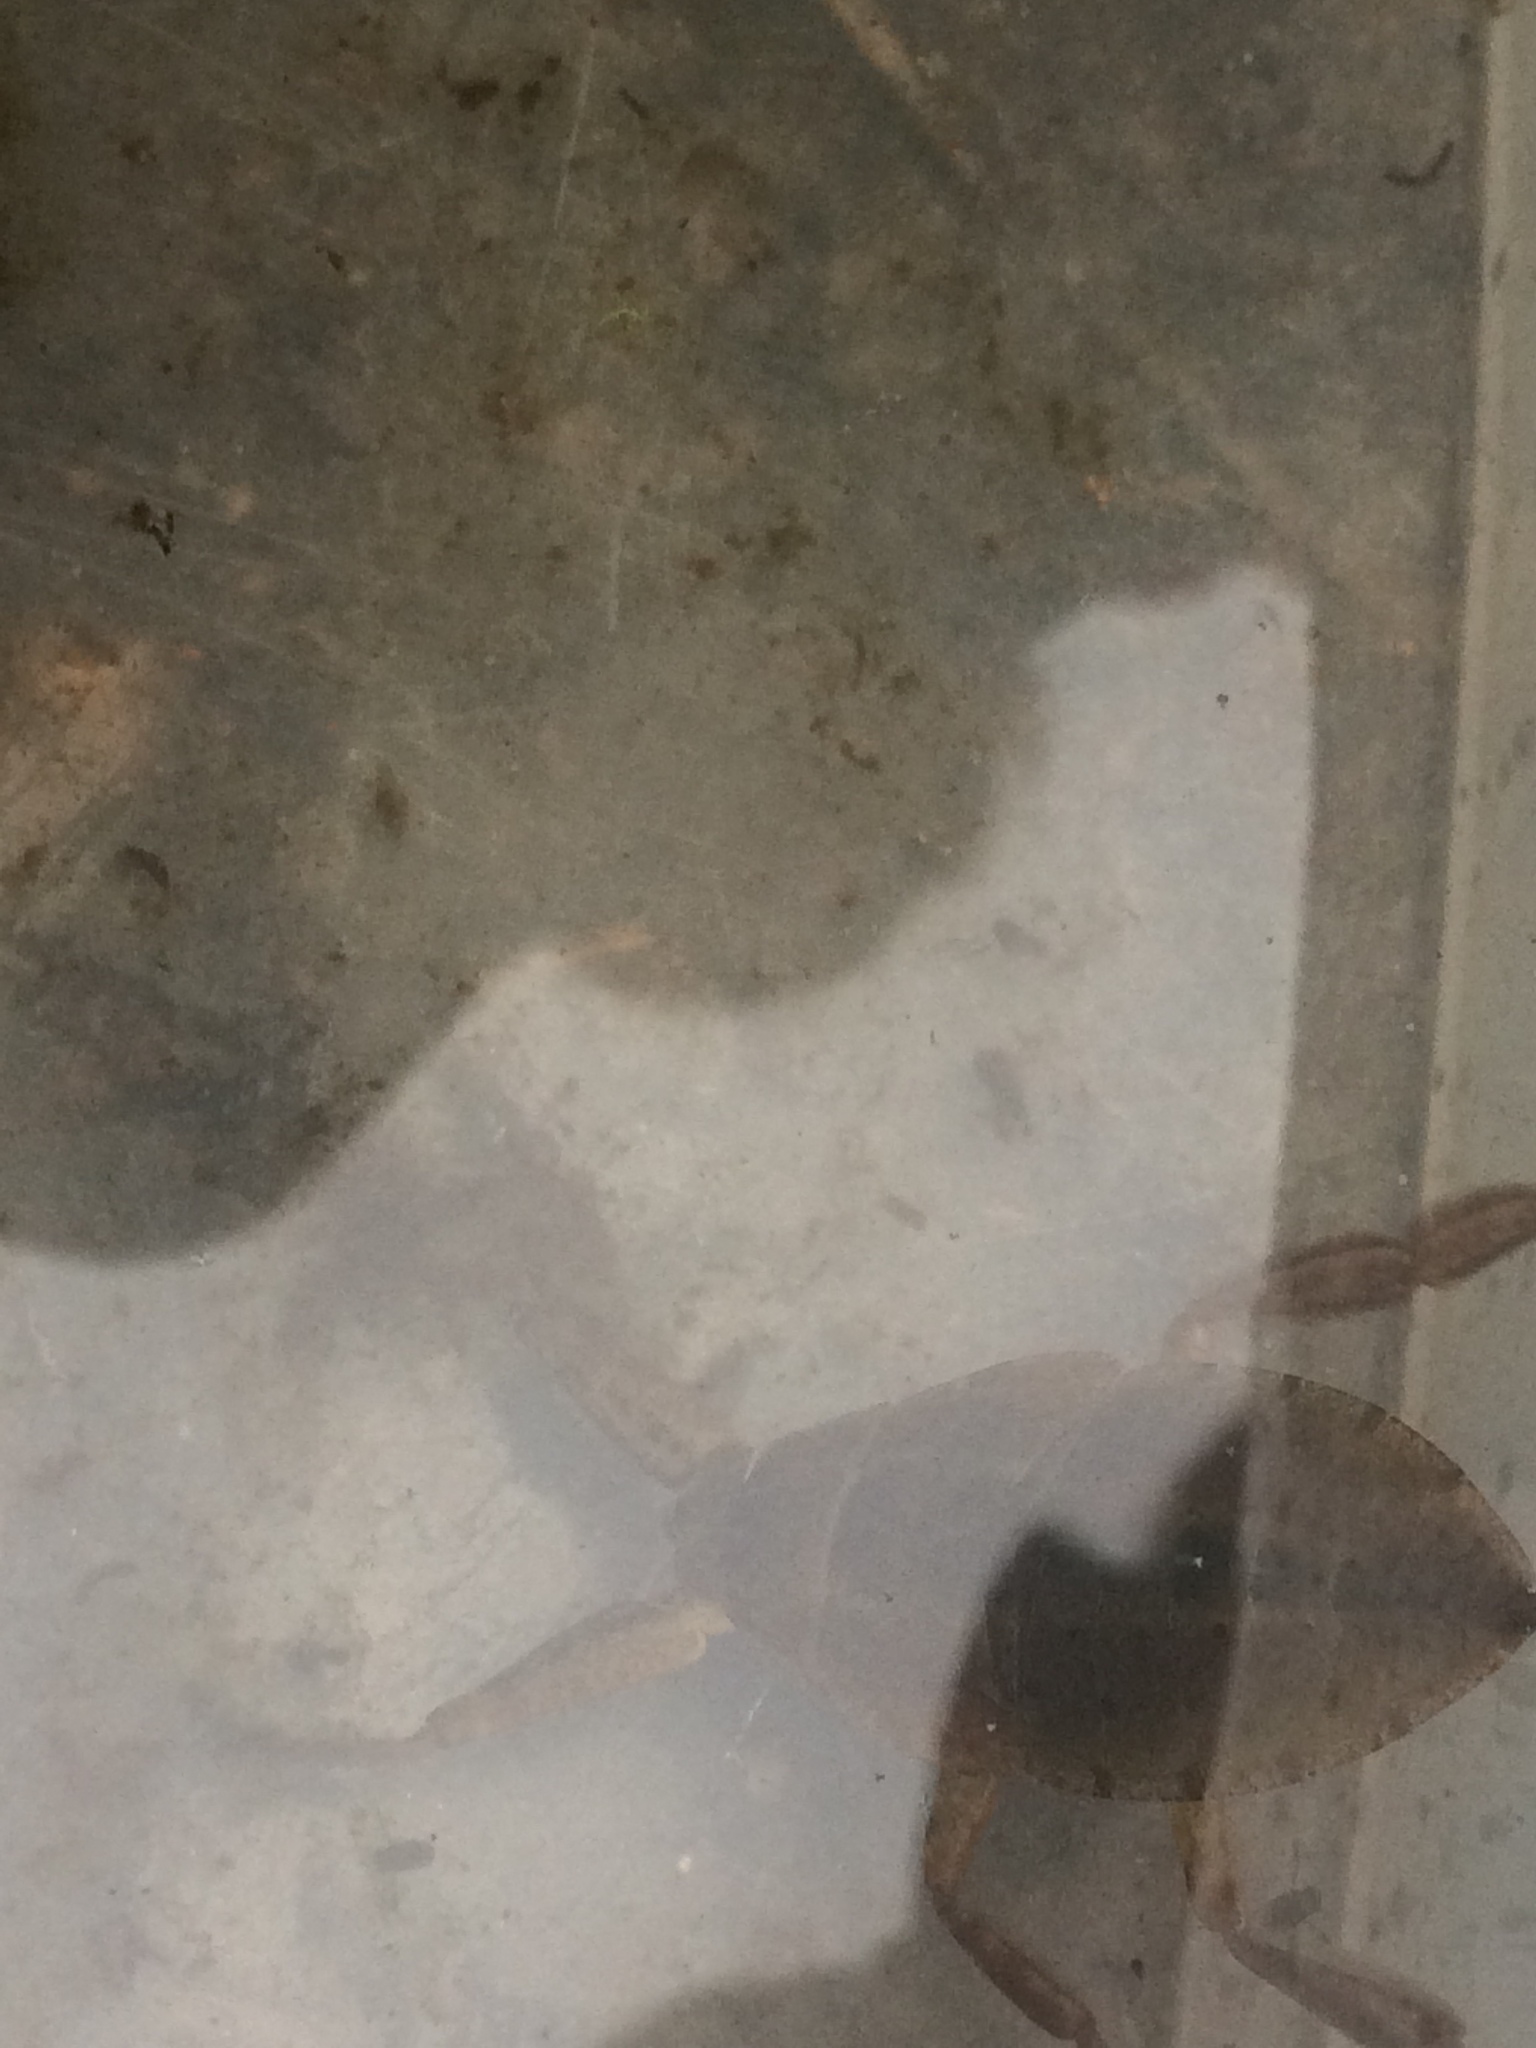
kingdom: Animalia
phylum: Arthropoda
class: Insecta
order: Hemiptera
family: Belostomatidae
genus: Lethocerus
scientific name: Lethocerus americanus
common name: Giant water bug
